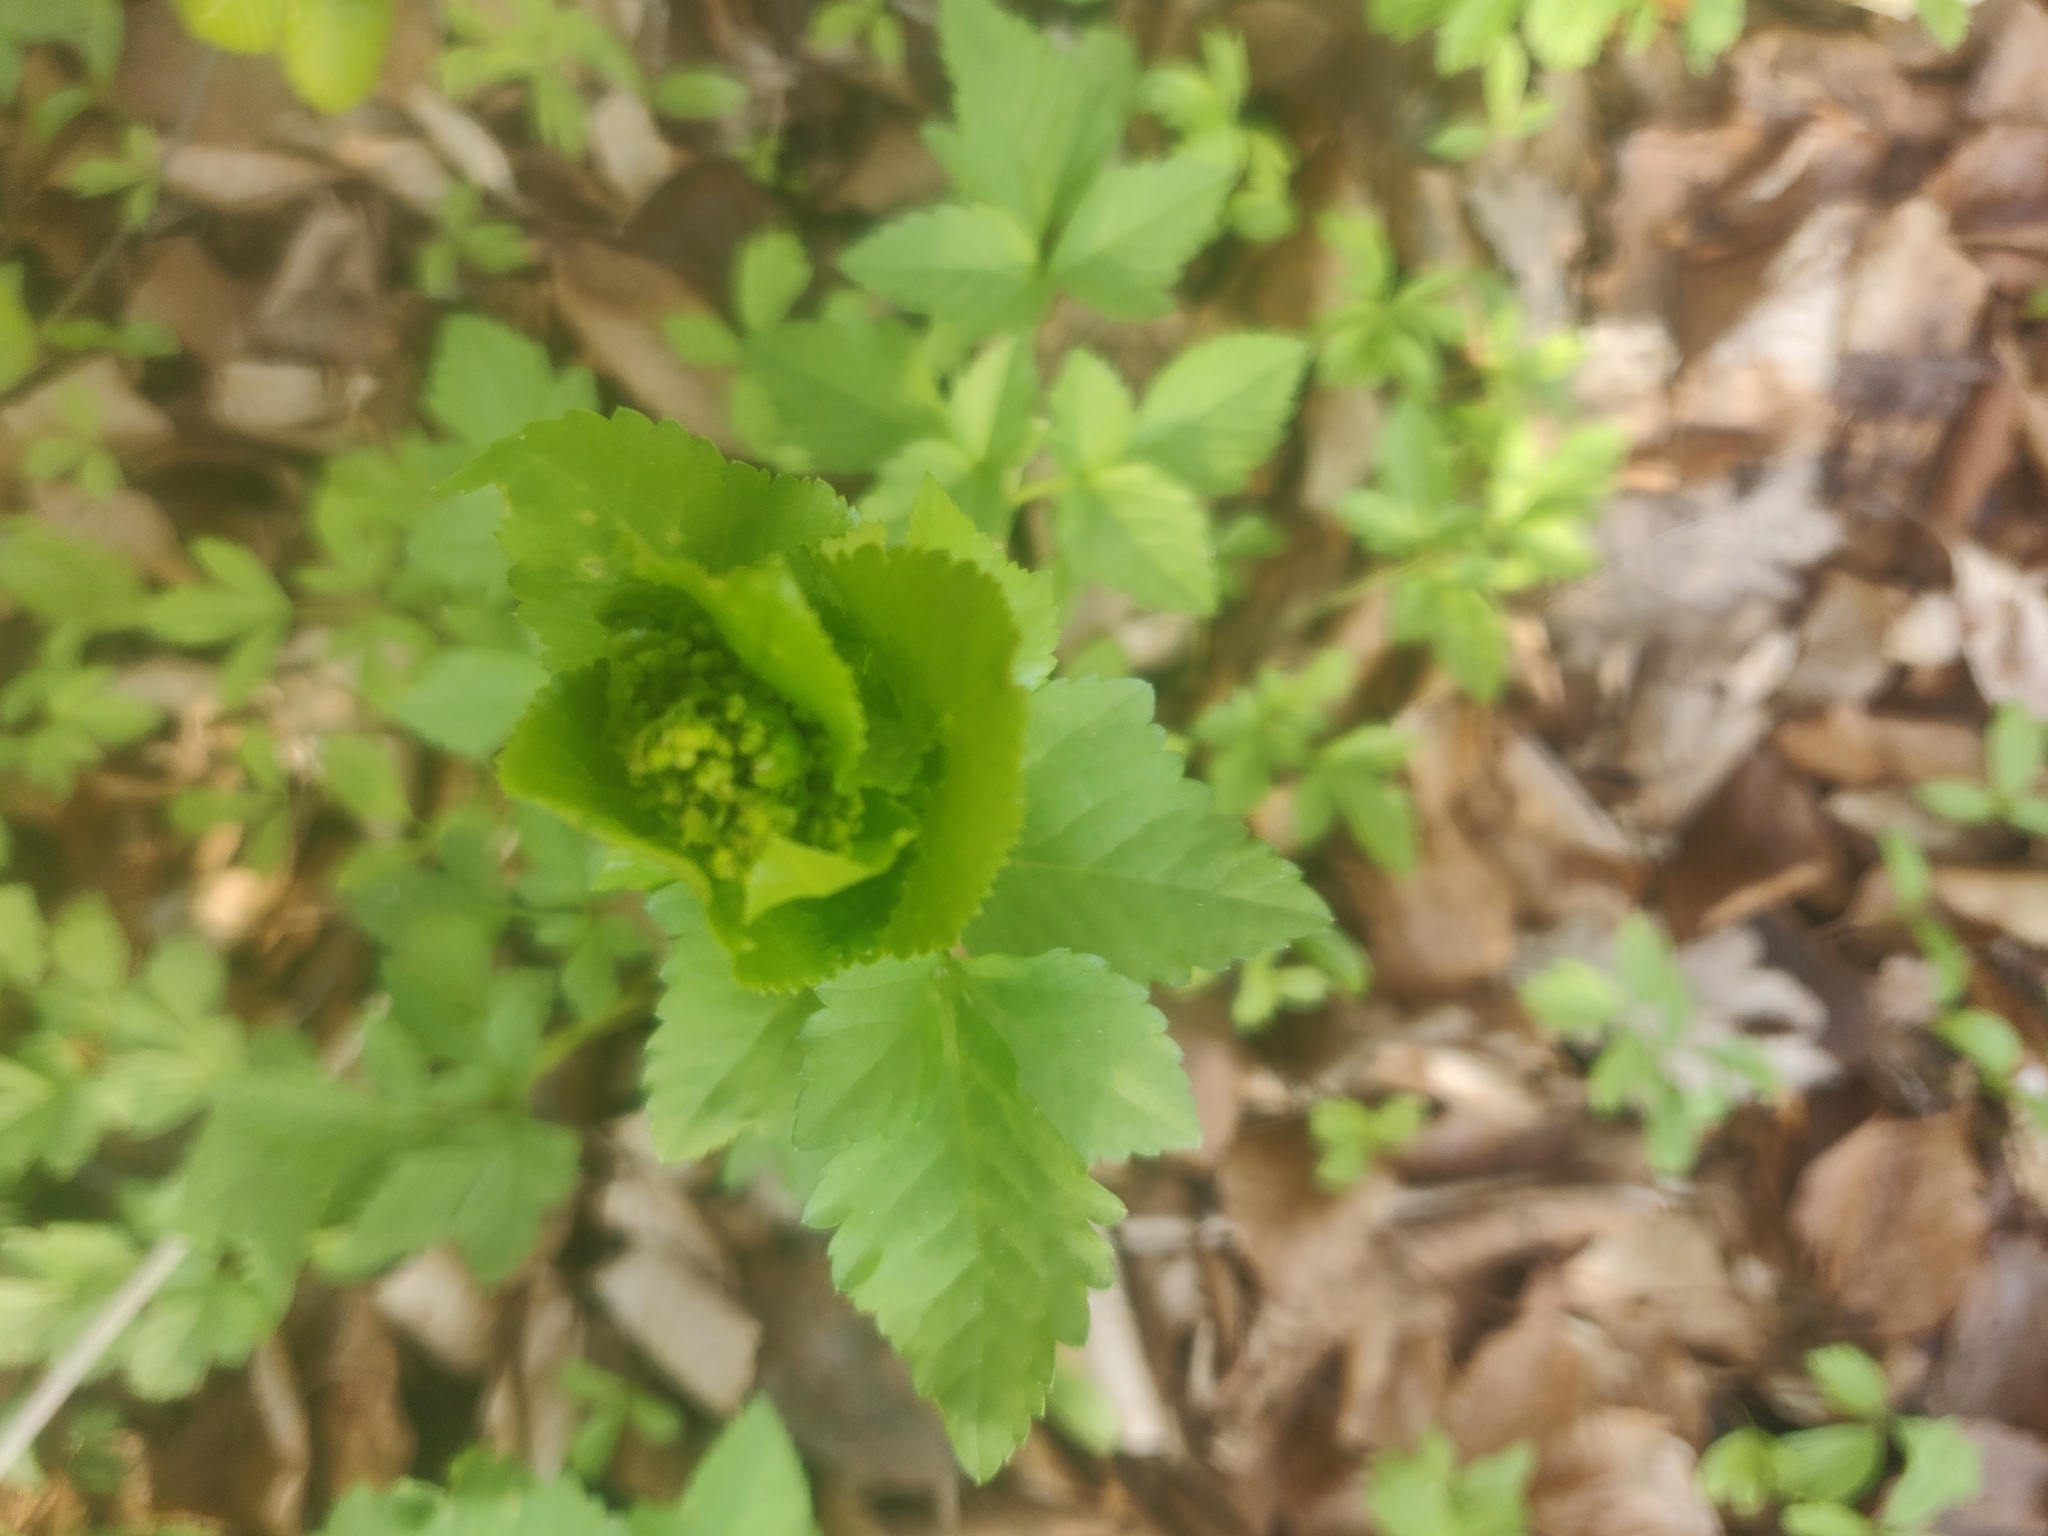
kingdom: Plantae
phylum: Tracheophyta
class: Magnoliopsida
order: Apiales
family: Apiaceae
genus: Smyrnium
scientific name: Smyrnium perfoliatum
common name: Perfoliate alexanders
